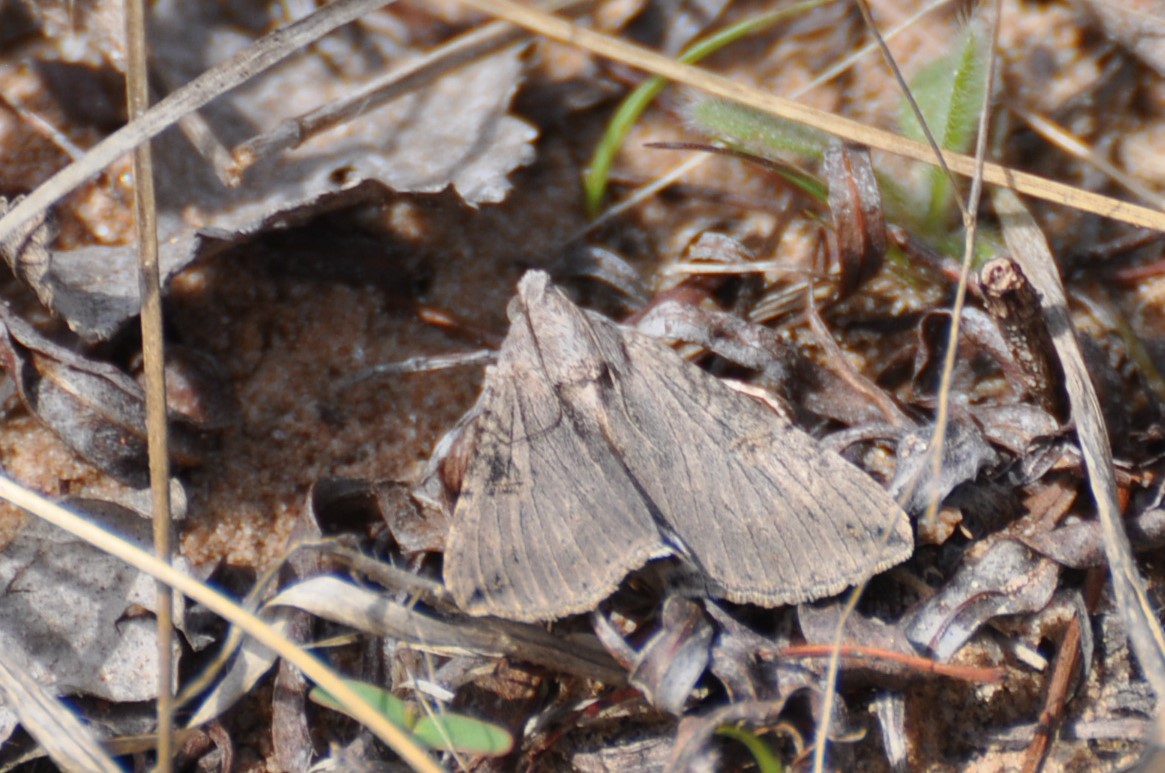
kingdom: Animalia
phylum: Arthropoda
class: Insecta
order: Lepidoptera
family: Erebidae
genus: Melipotis
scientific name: Melipotis jucunda
